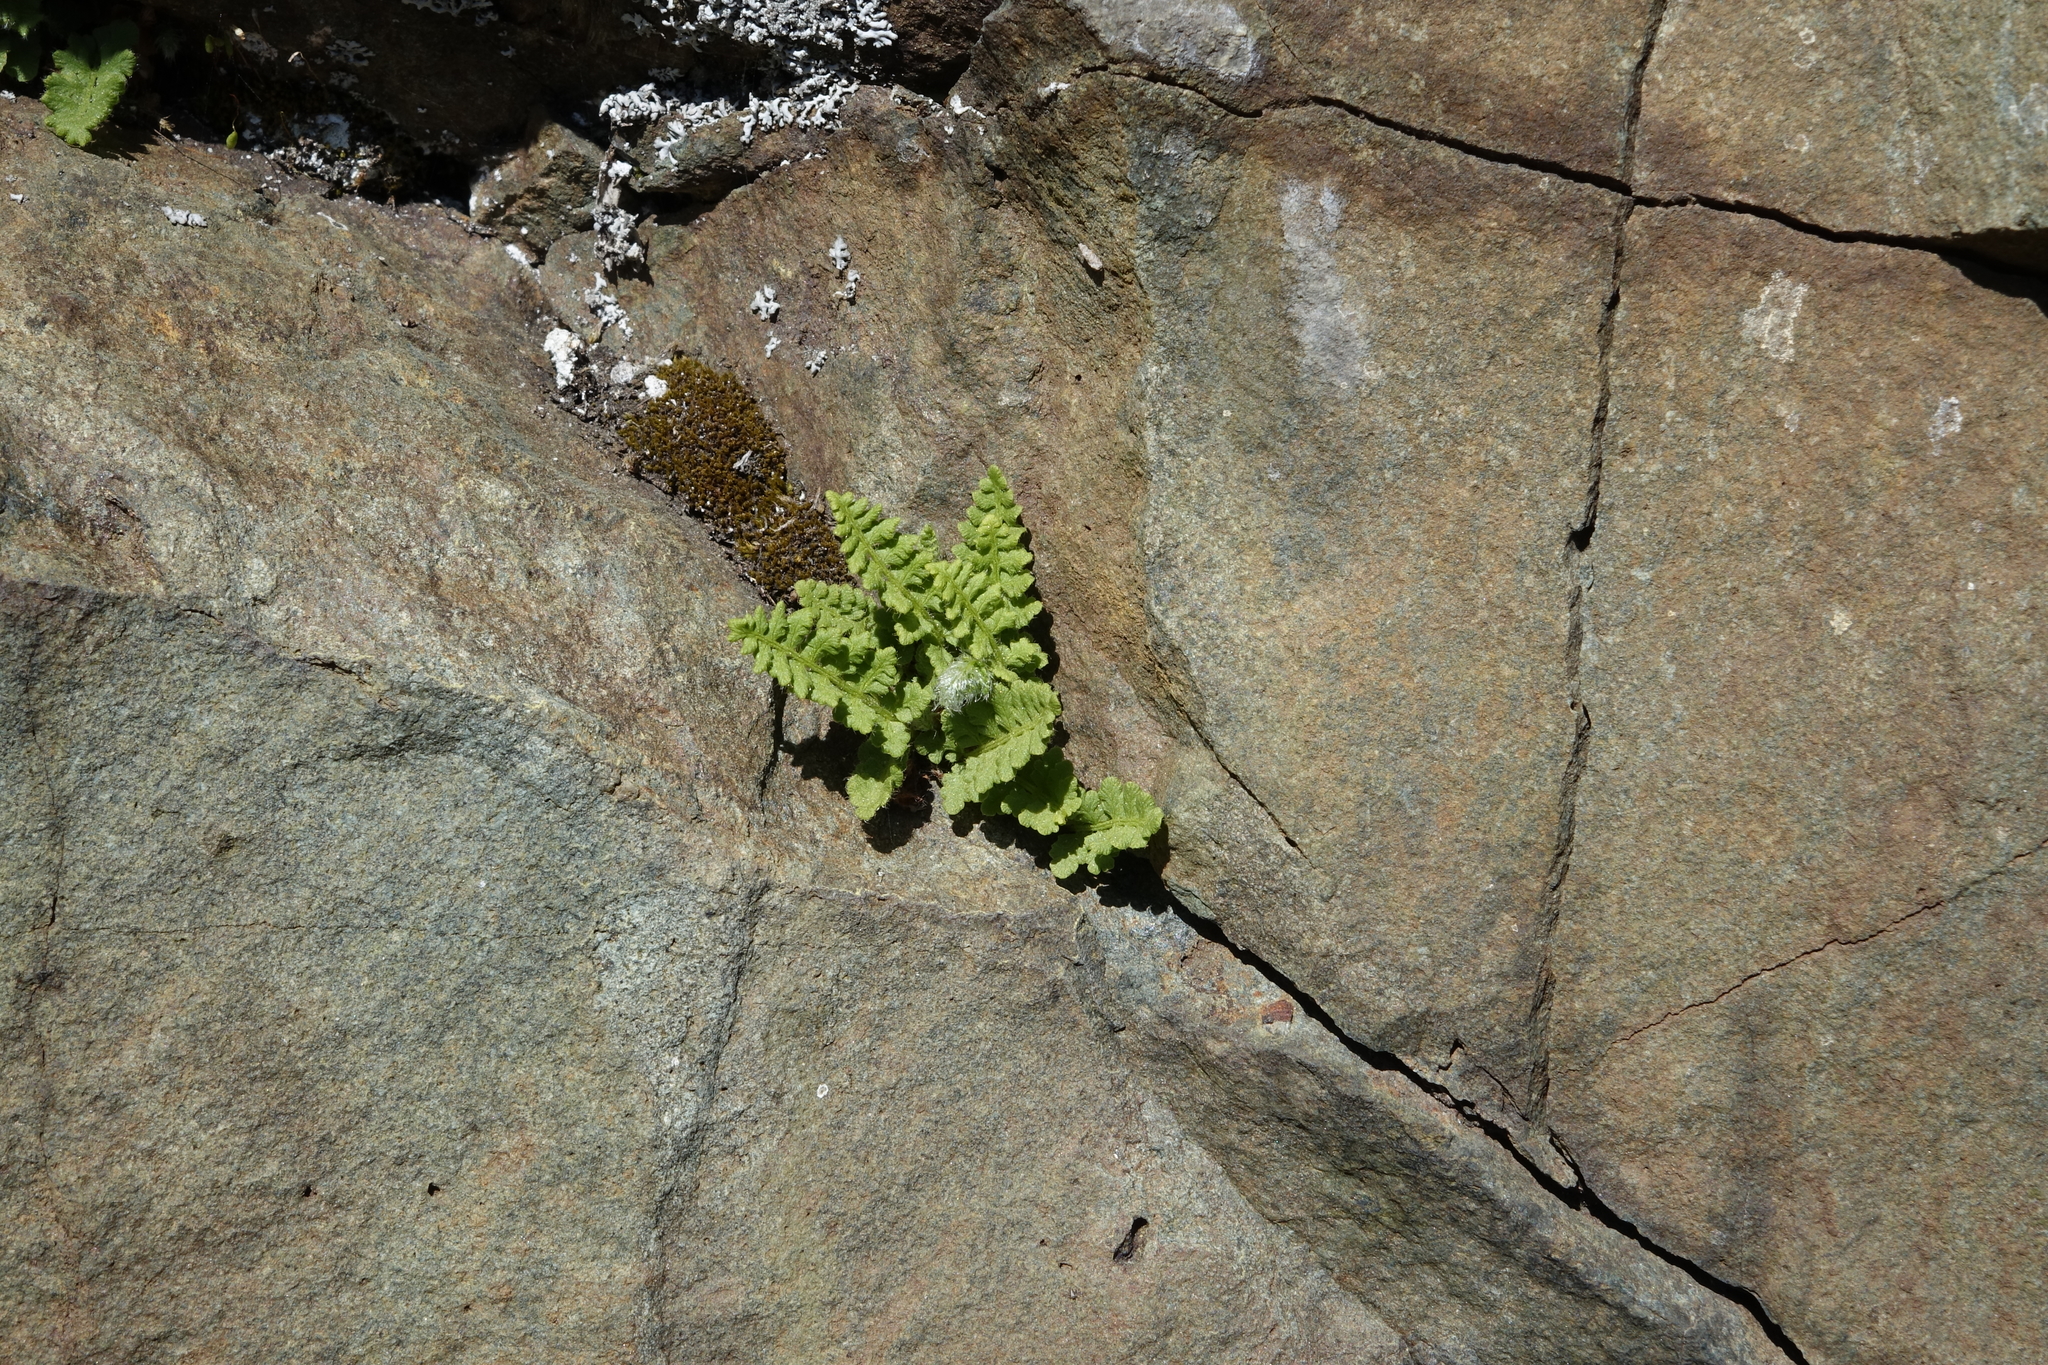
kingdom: Plantae
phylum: Tracheophyta
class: Polypodiopsida
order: Polypodiales
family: Woodsiaceae
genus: Woodsia
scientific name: Woodsia ilvensis
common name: Fragrant woodsia
